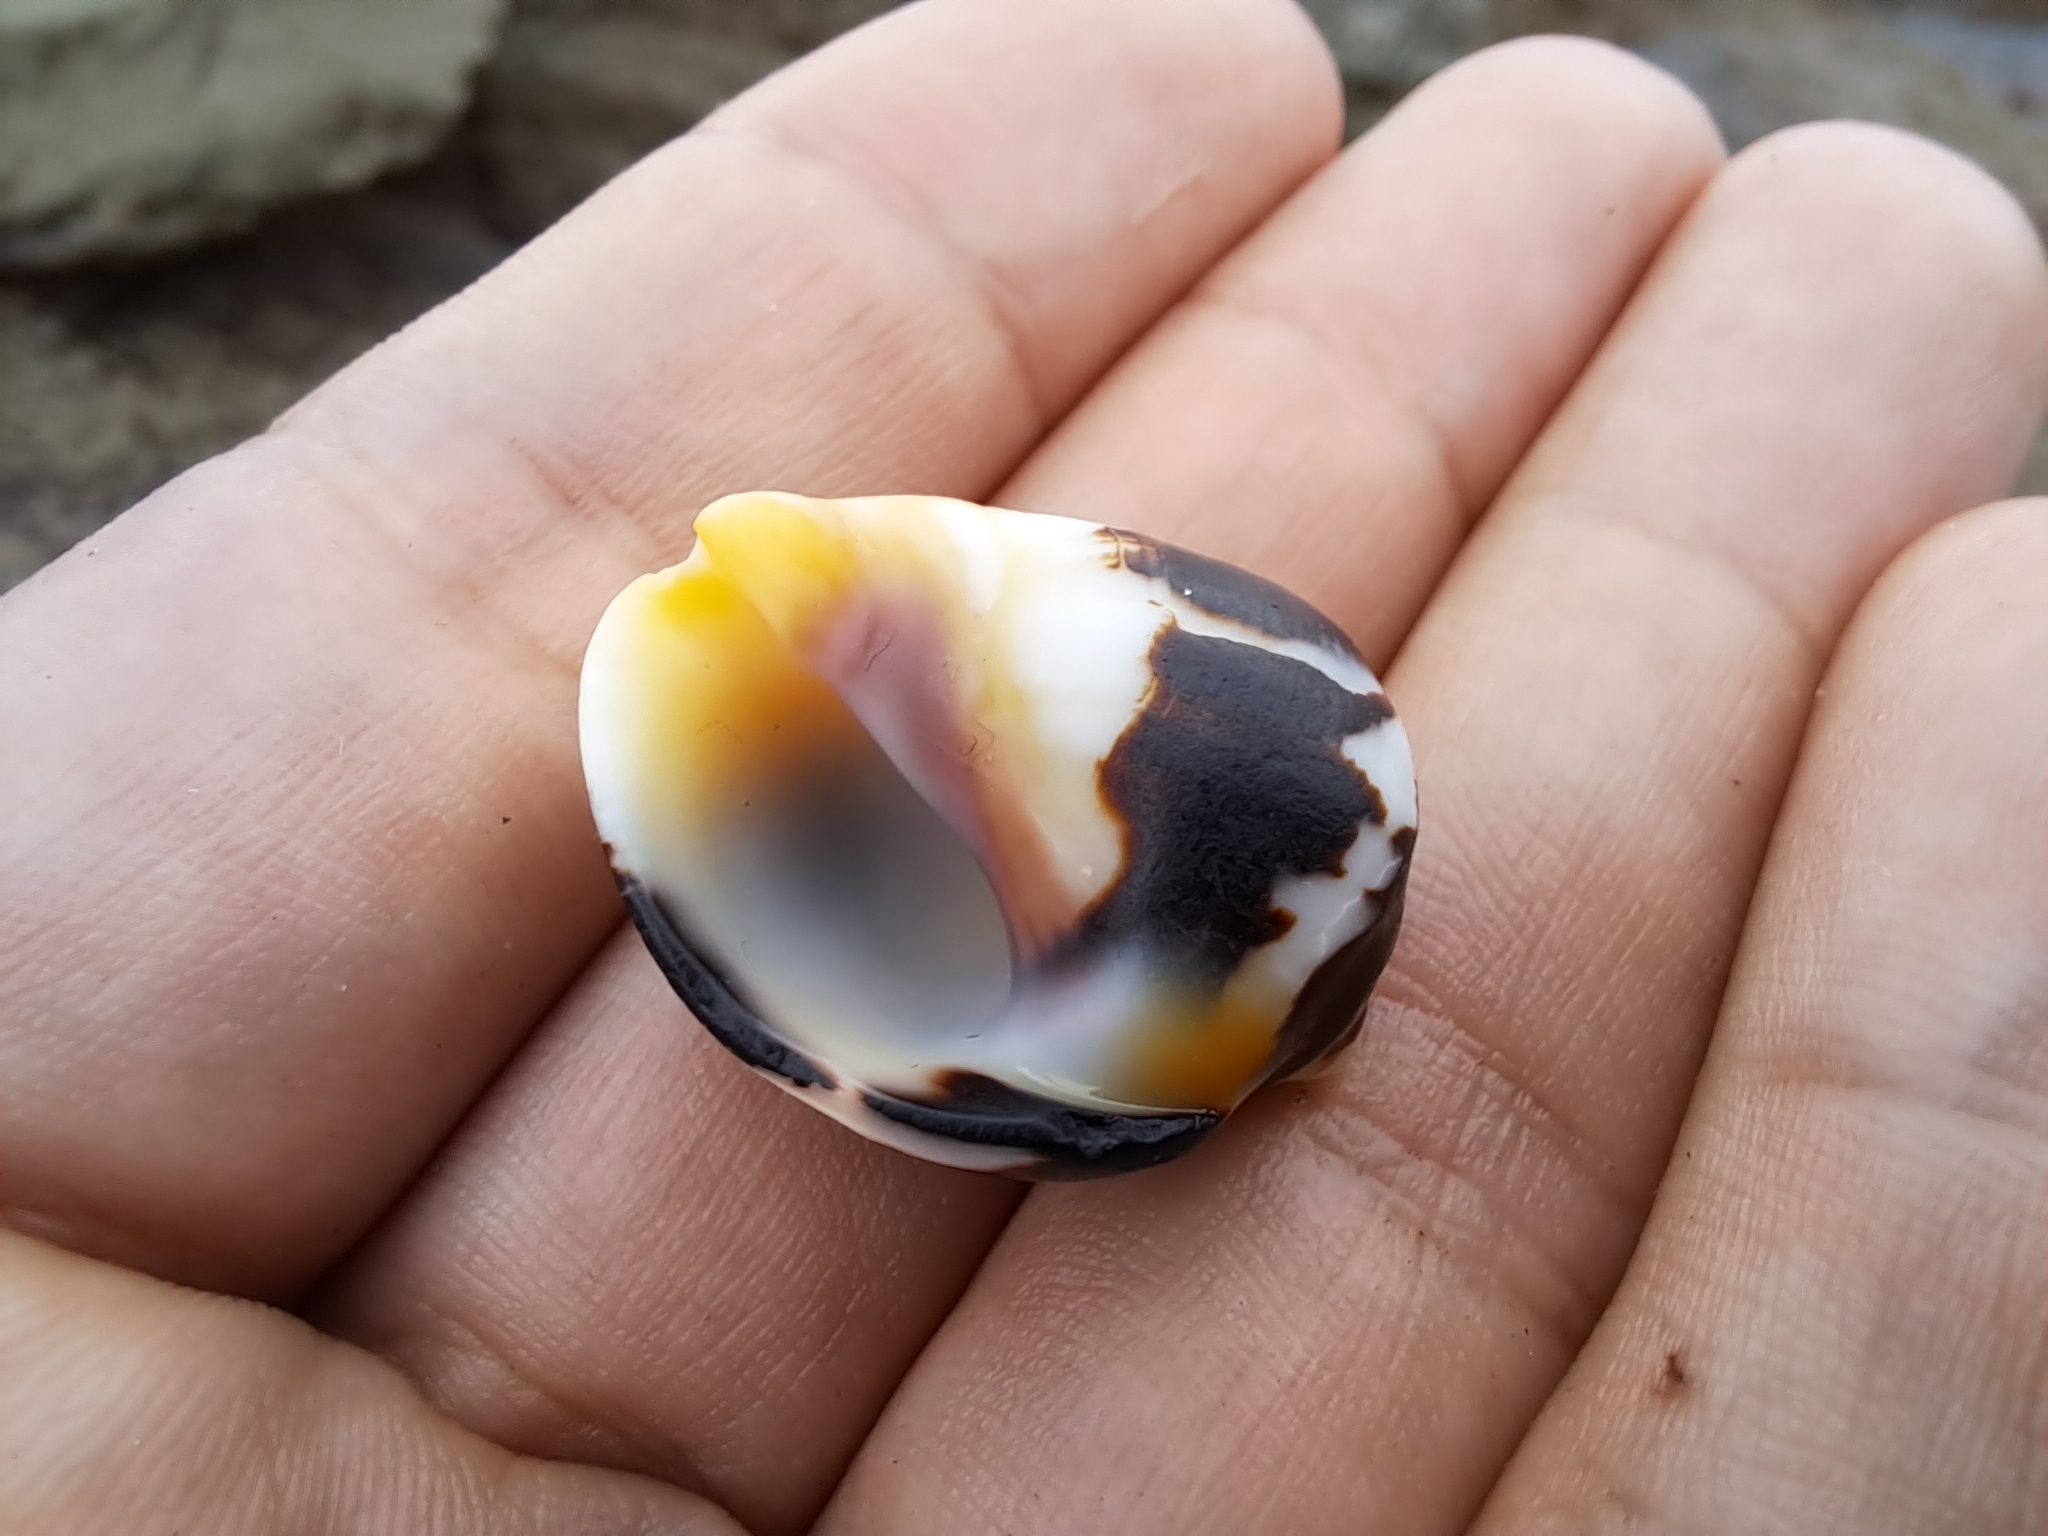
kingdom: Animalia
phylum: Mollusca
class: Gastropoda
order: Neogastropoda
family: Muricidae
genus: Vasula
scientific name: Vasula melones
